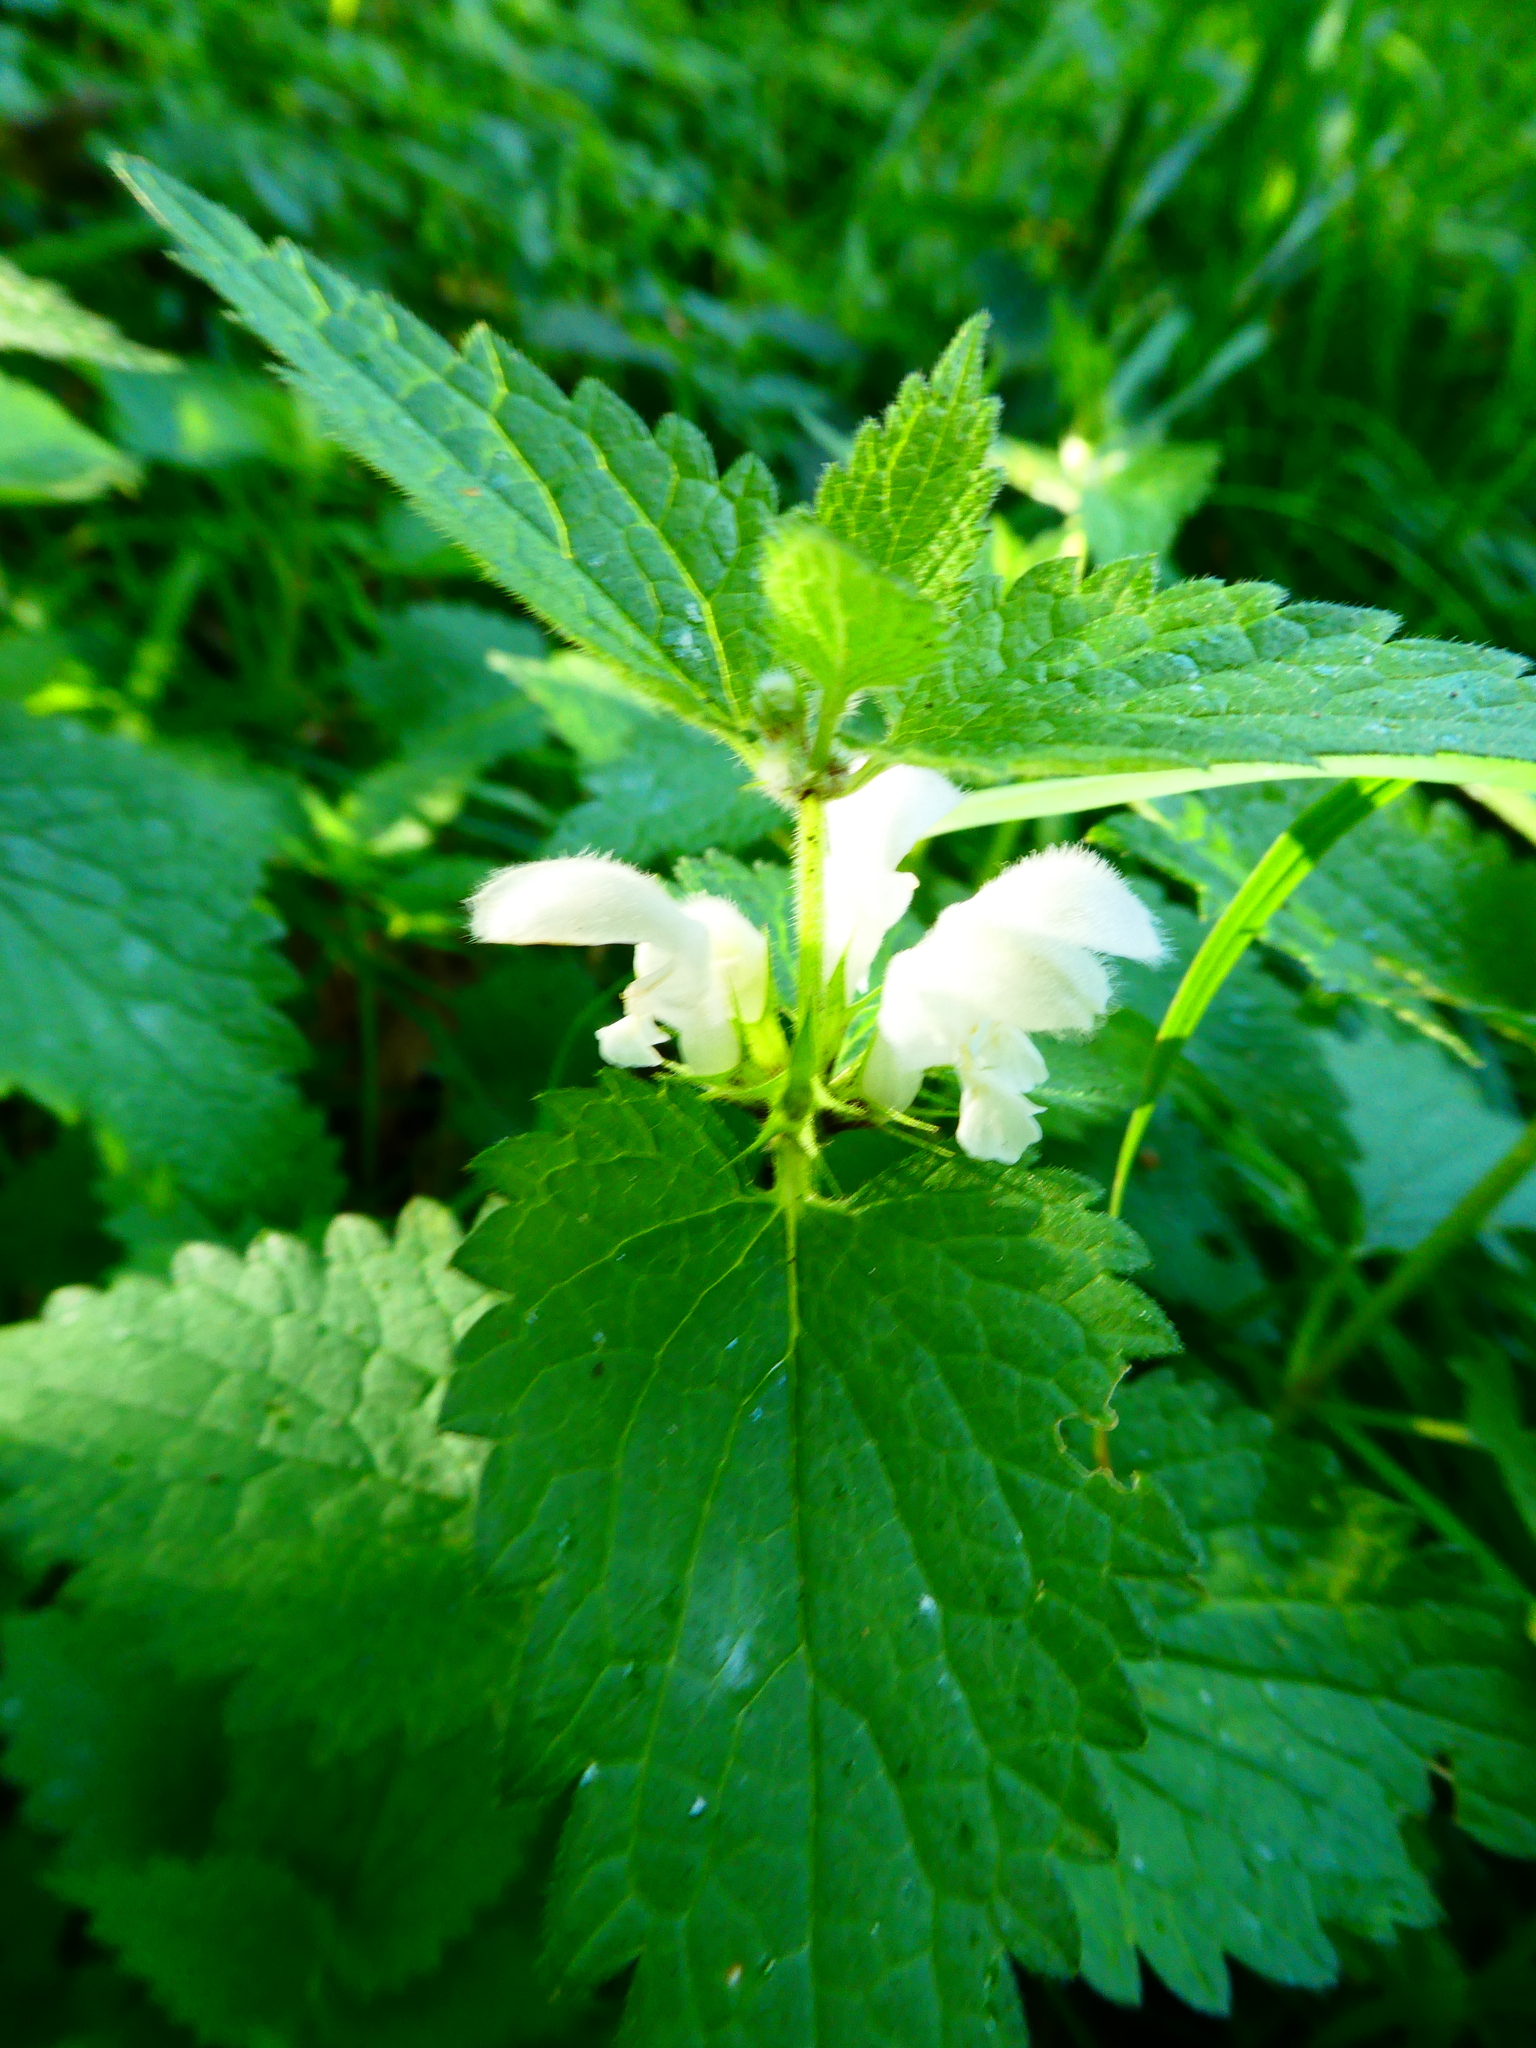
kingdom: Plantae
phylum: Tracheophyta
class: Magnoliopsida
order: Lamiales
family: Lamiaceae
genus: Lamium
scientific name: Lamium album
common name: White dead-nettle
